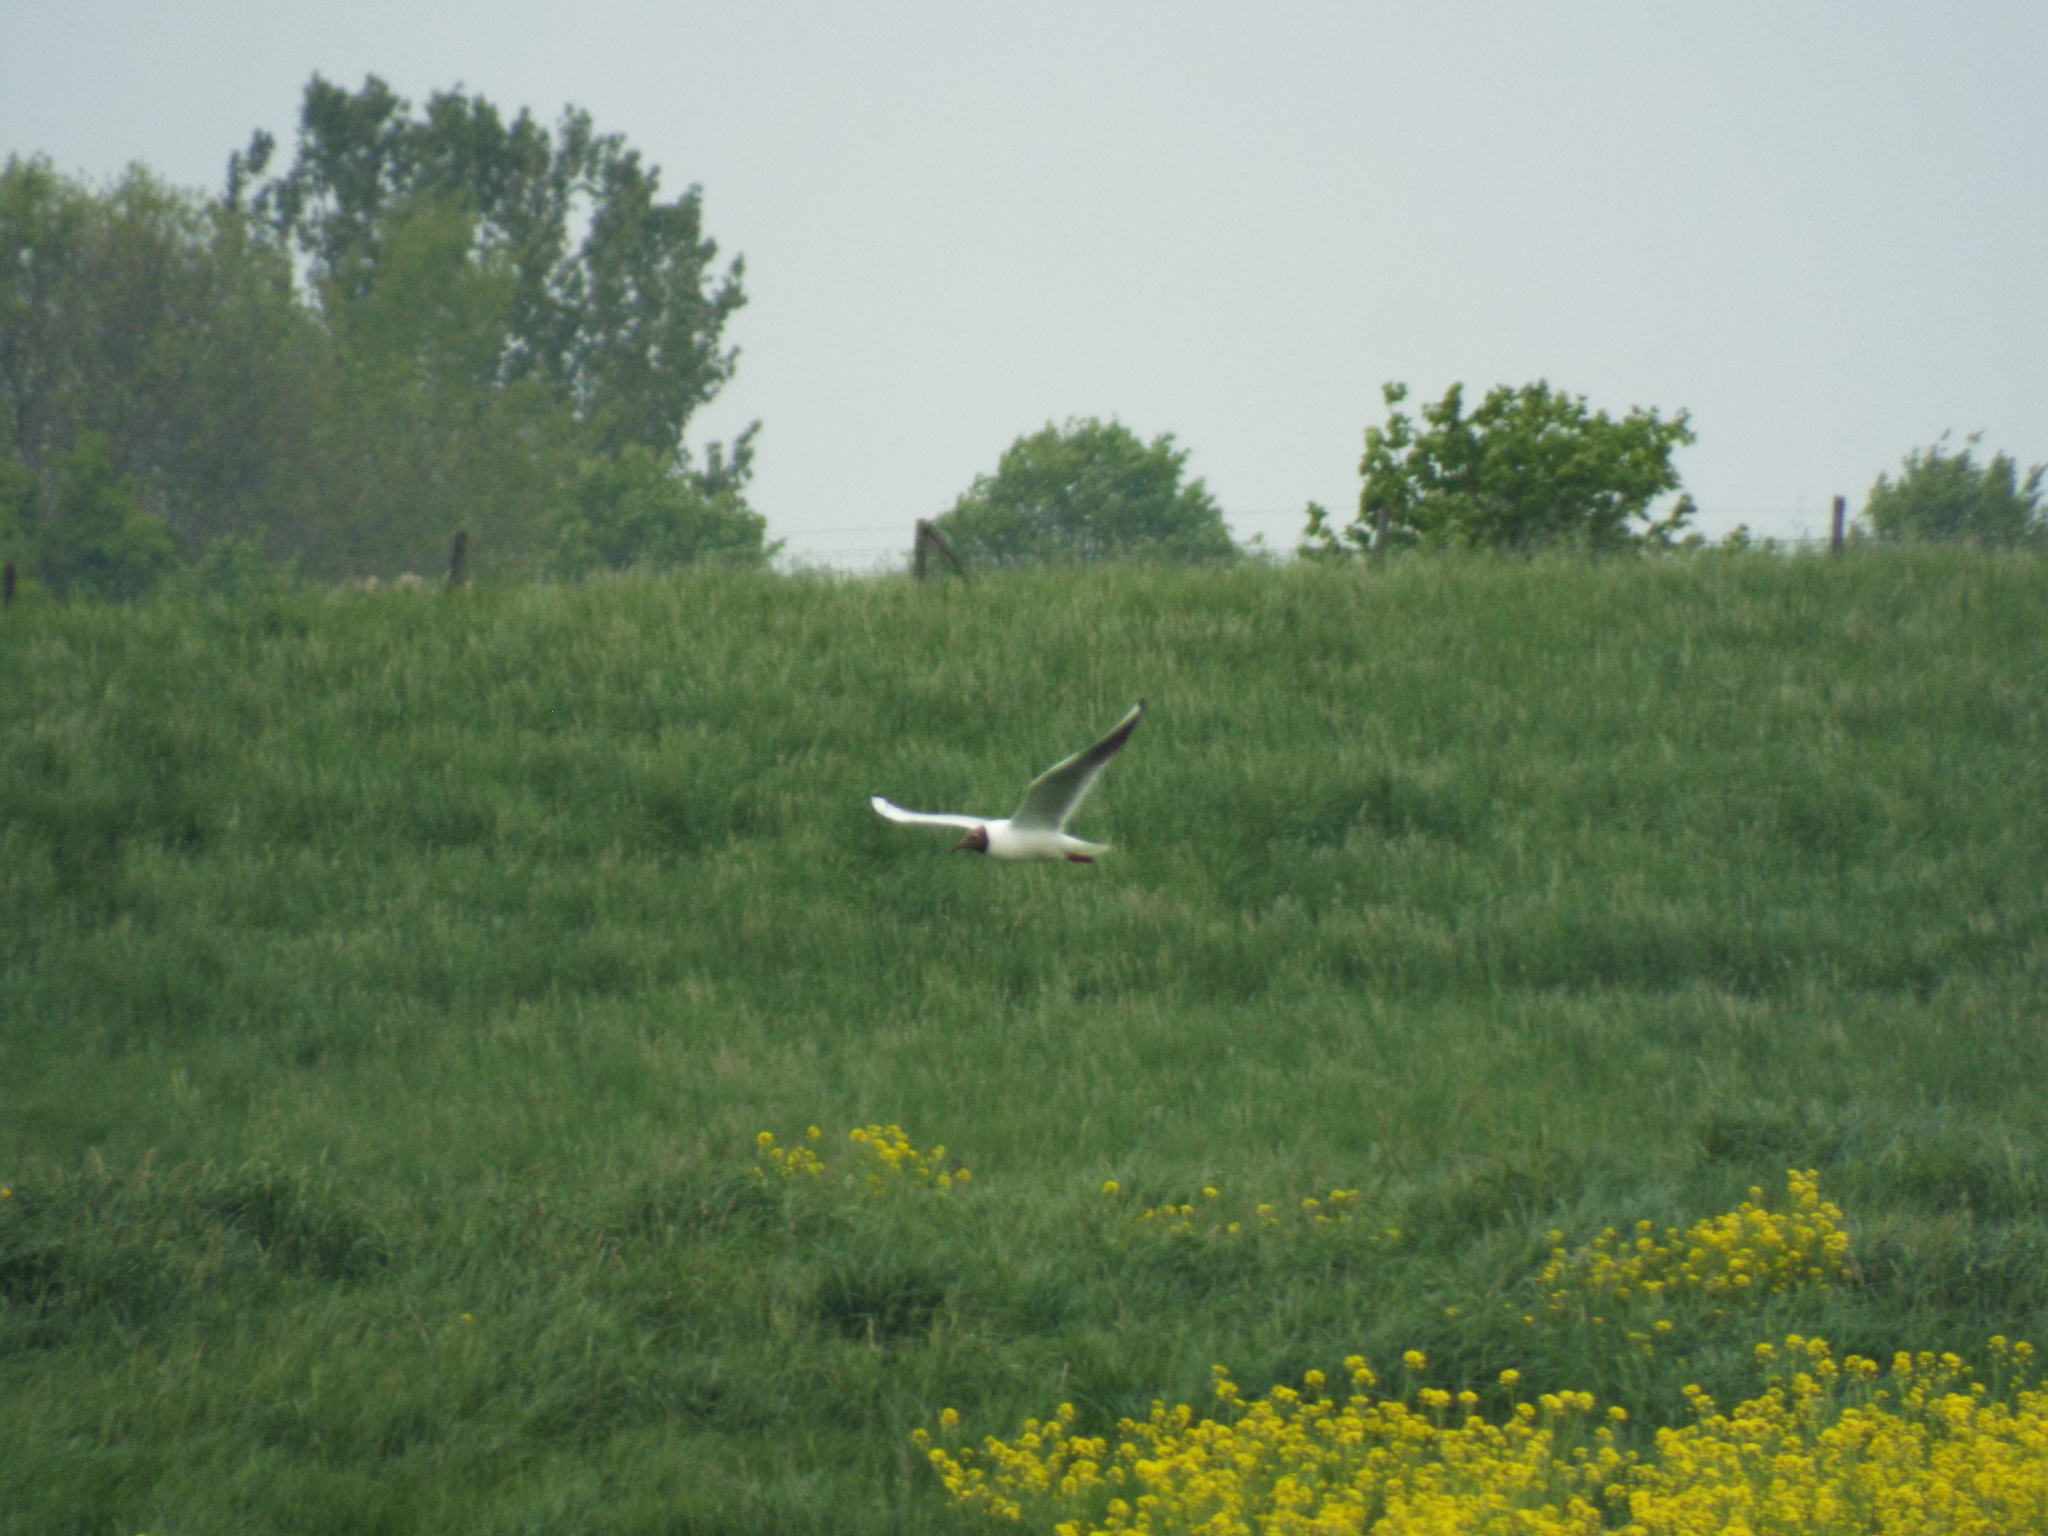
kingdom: Animalia
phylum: Chordata
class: Aves
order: Charadriiformes
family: Laridae
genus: Chroicocephalus
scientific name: Chroicocephalus ridibundus
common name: Black-headed gull
